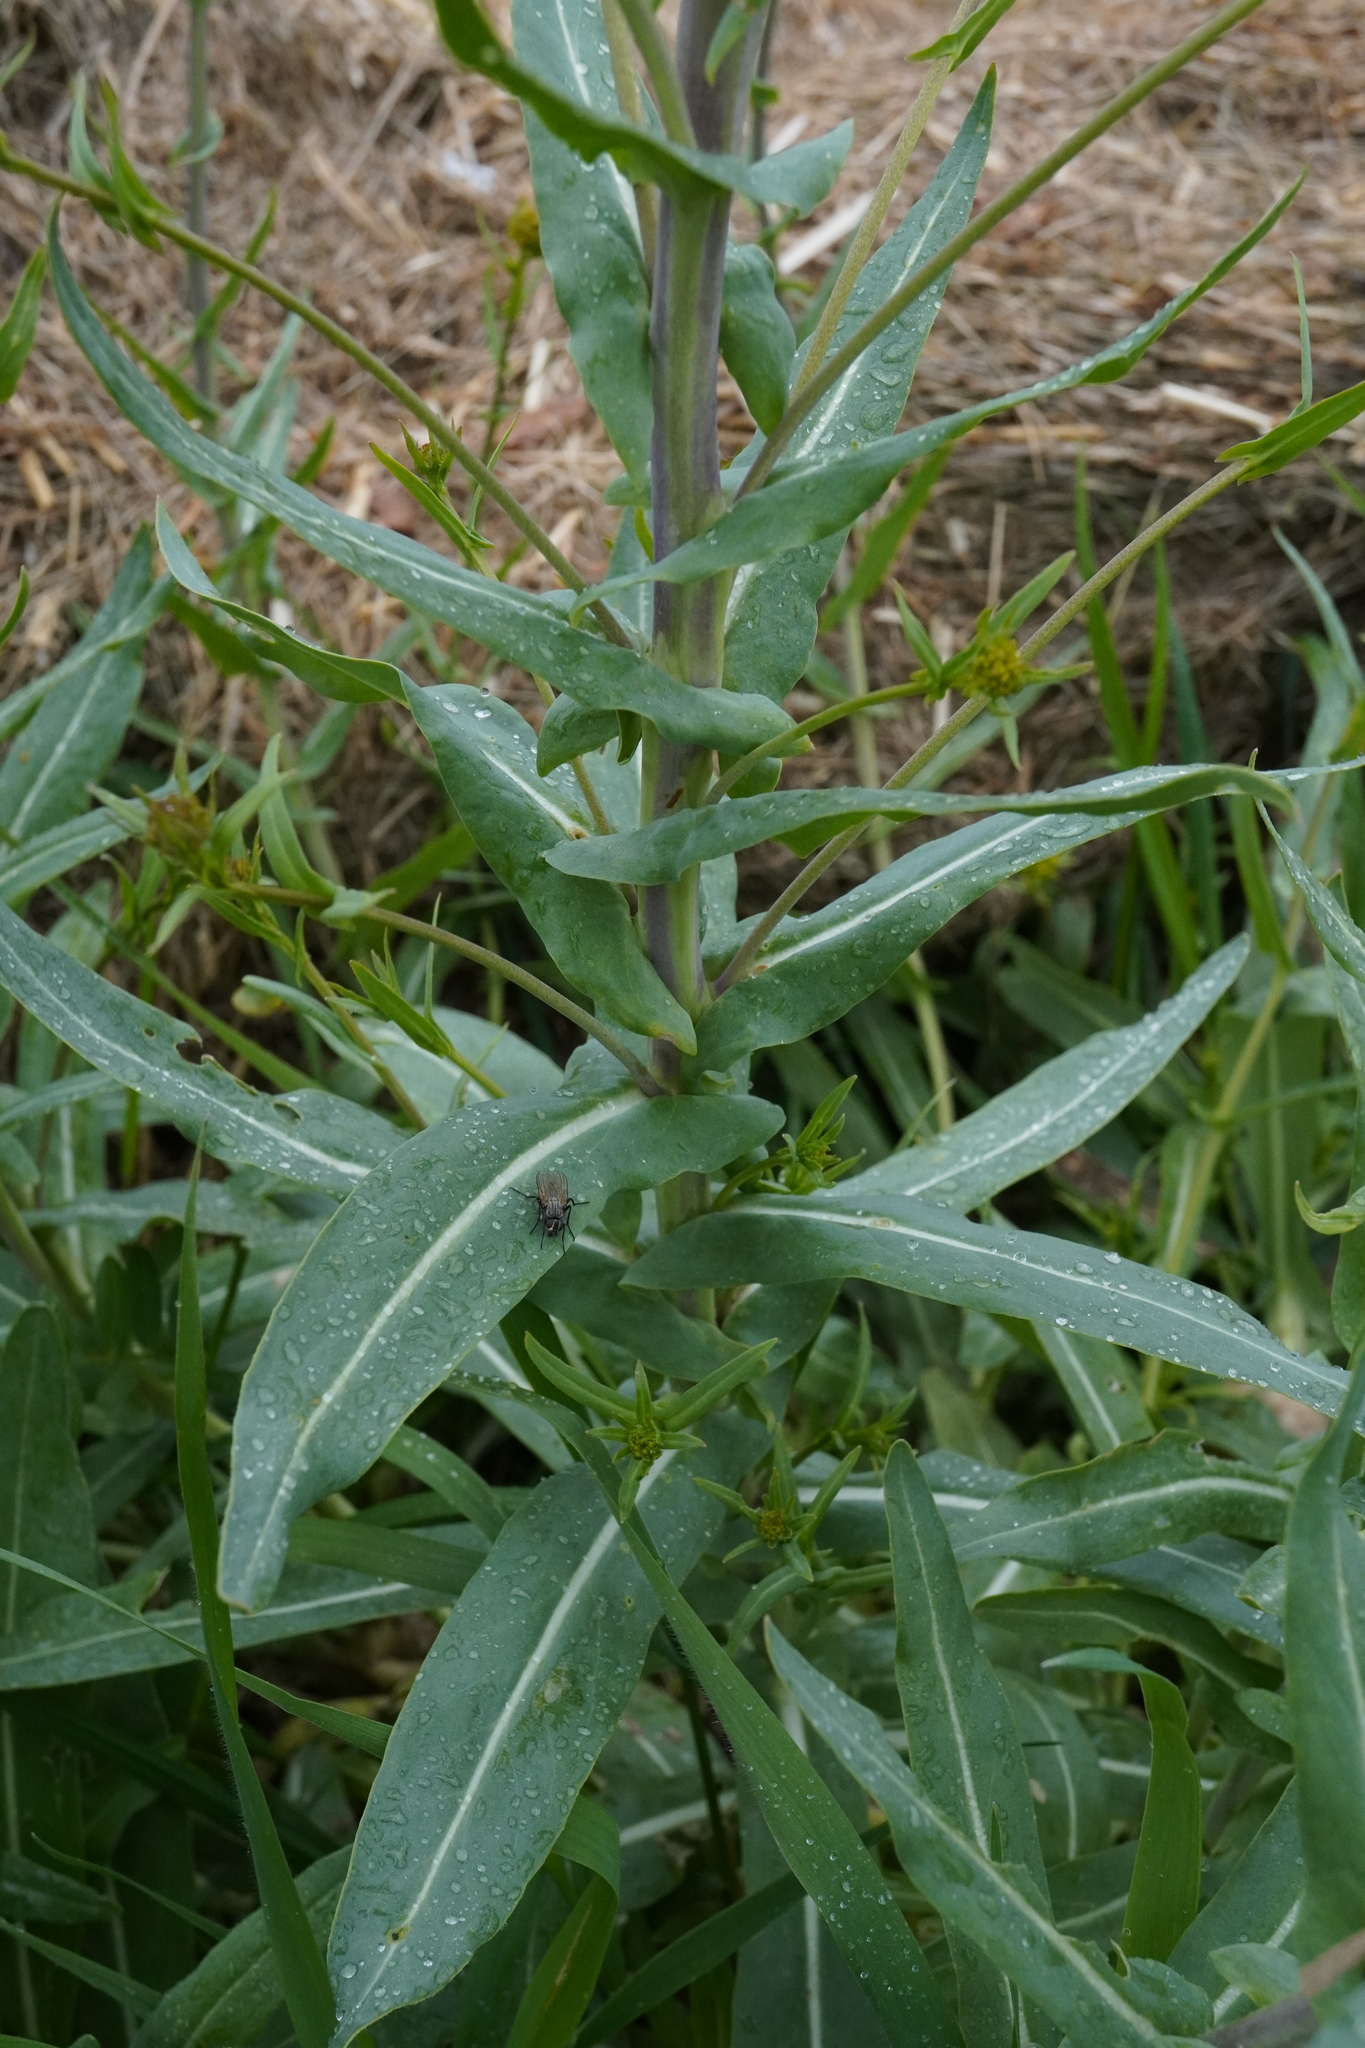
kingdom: Plantae
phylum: Tracheophyta
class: Magnoliopsida
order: Brassicales
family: Brassicaceae
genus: Isatis
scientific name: Isatis tinctoria
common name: Woad
